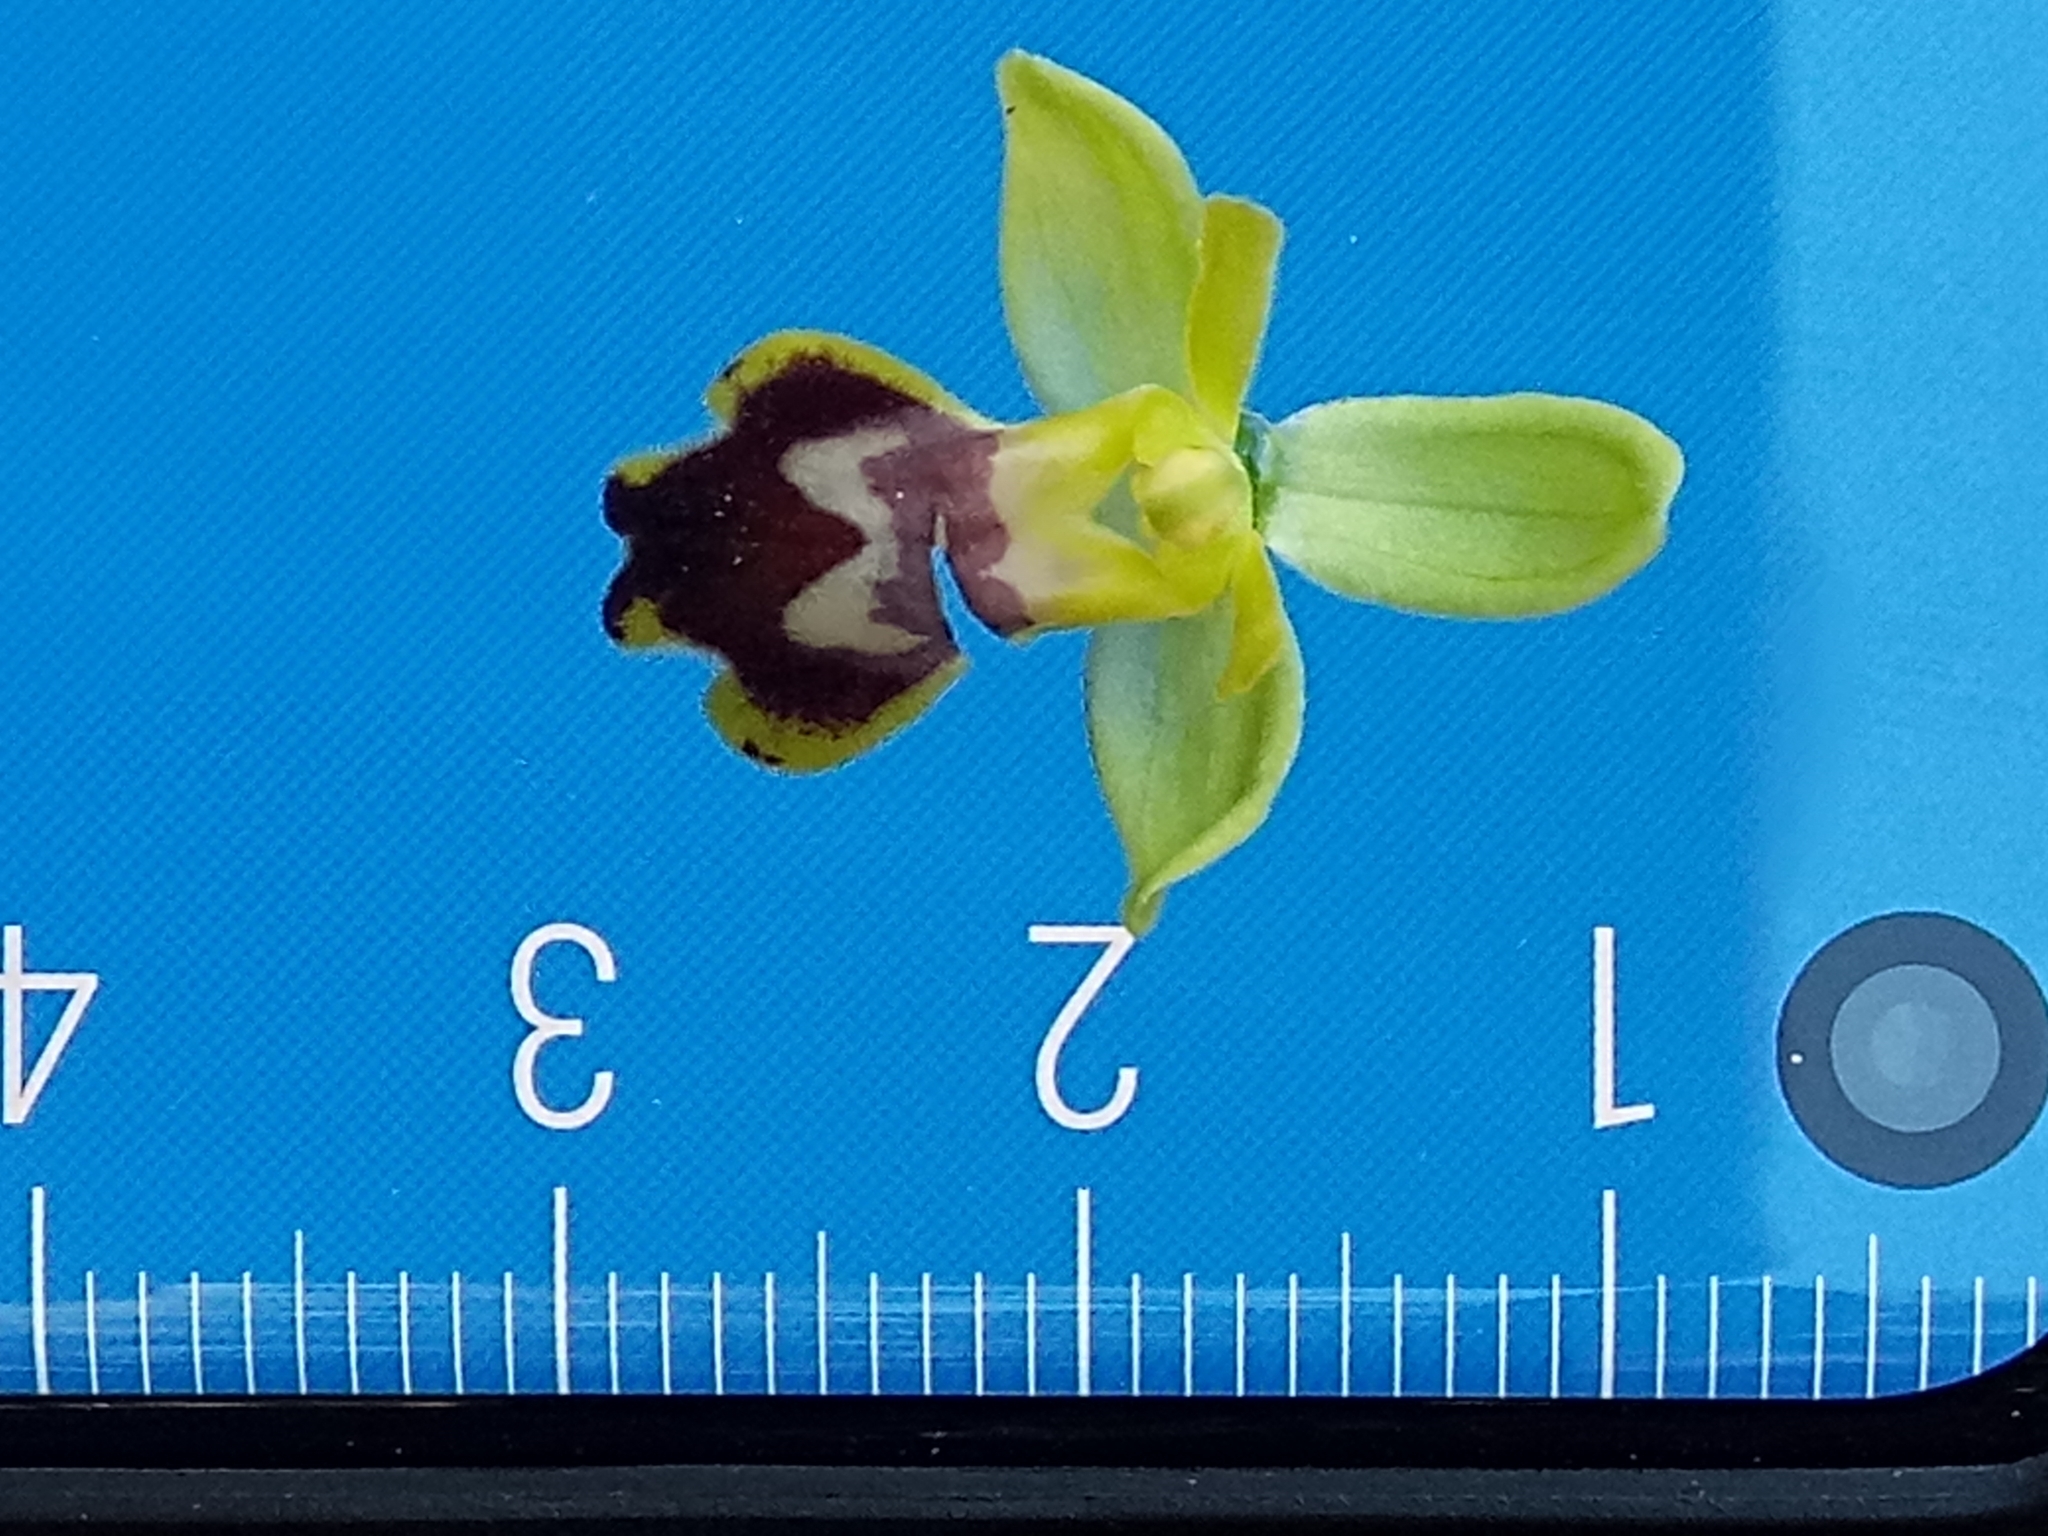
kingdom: Plantae
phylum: Tracheophyta
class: Liliopsida
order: Asparagales
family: Orchidaceae
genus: Ophrys
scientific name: Ophrys battandieri
